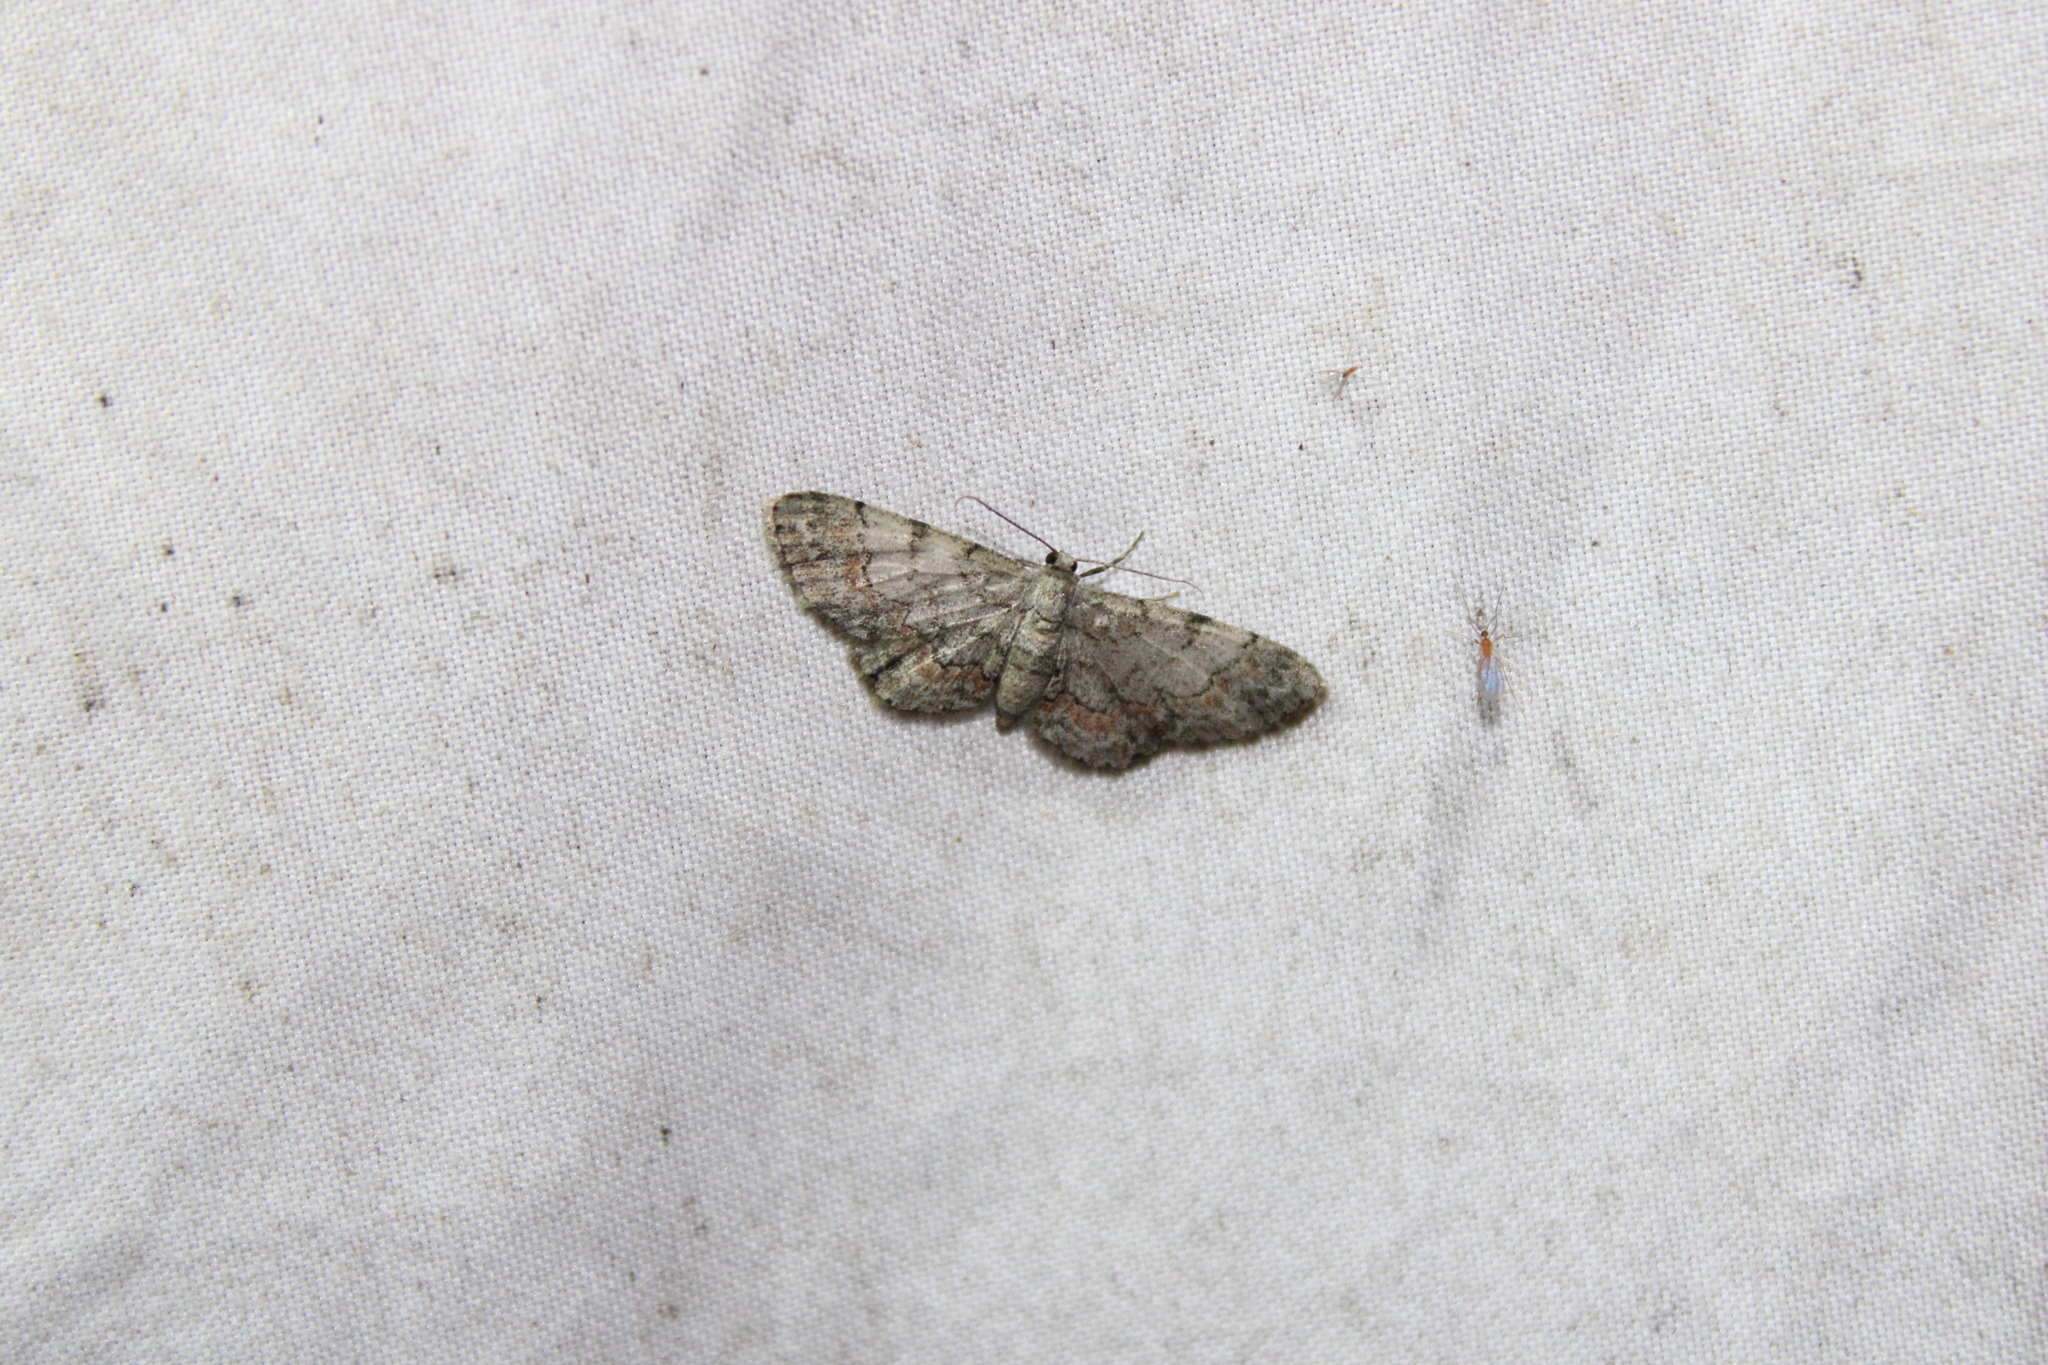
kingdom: Animalia
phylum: Arthropoda
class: Insecta
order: Lepidoptera
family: Geometridae
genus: Glenoides
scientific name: Glenoides texanaria
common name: Texas gray
